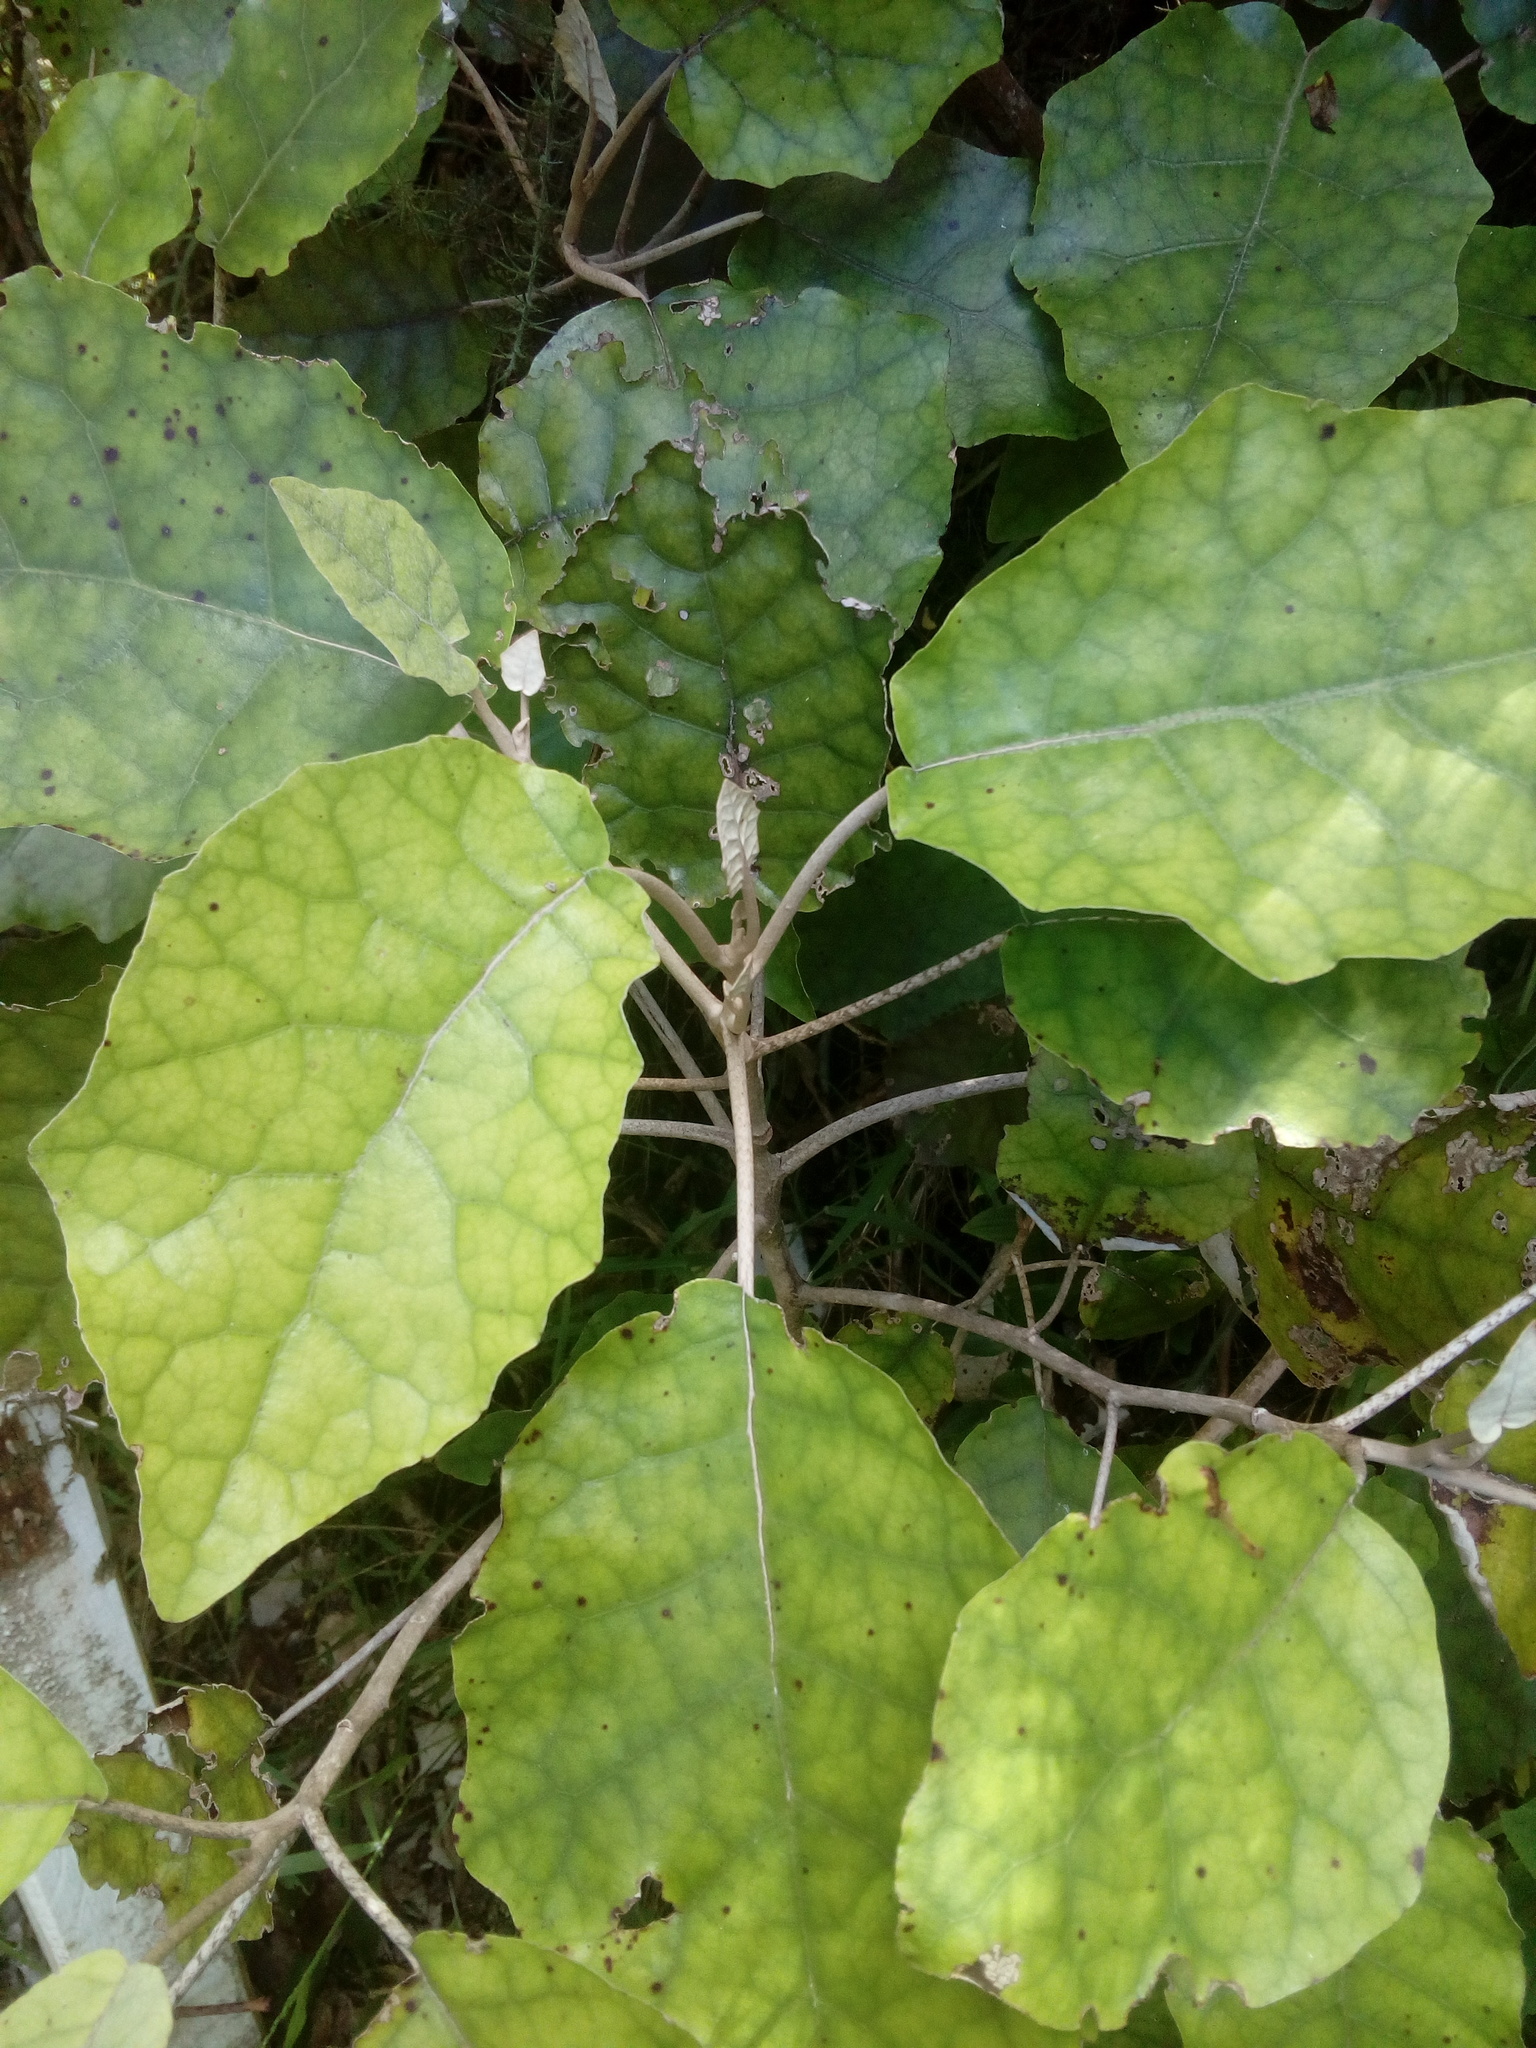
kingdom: Plantae
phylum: Tracheophyta
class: Magnoliopsida
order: Asterales
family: Asteraceae
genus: Brachyglottis
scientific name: Brachyglottis repanda
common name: Hedge ragwort
